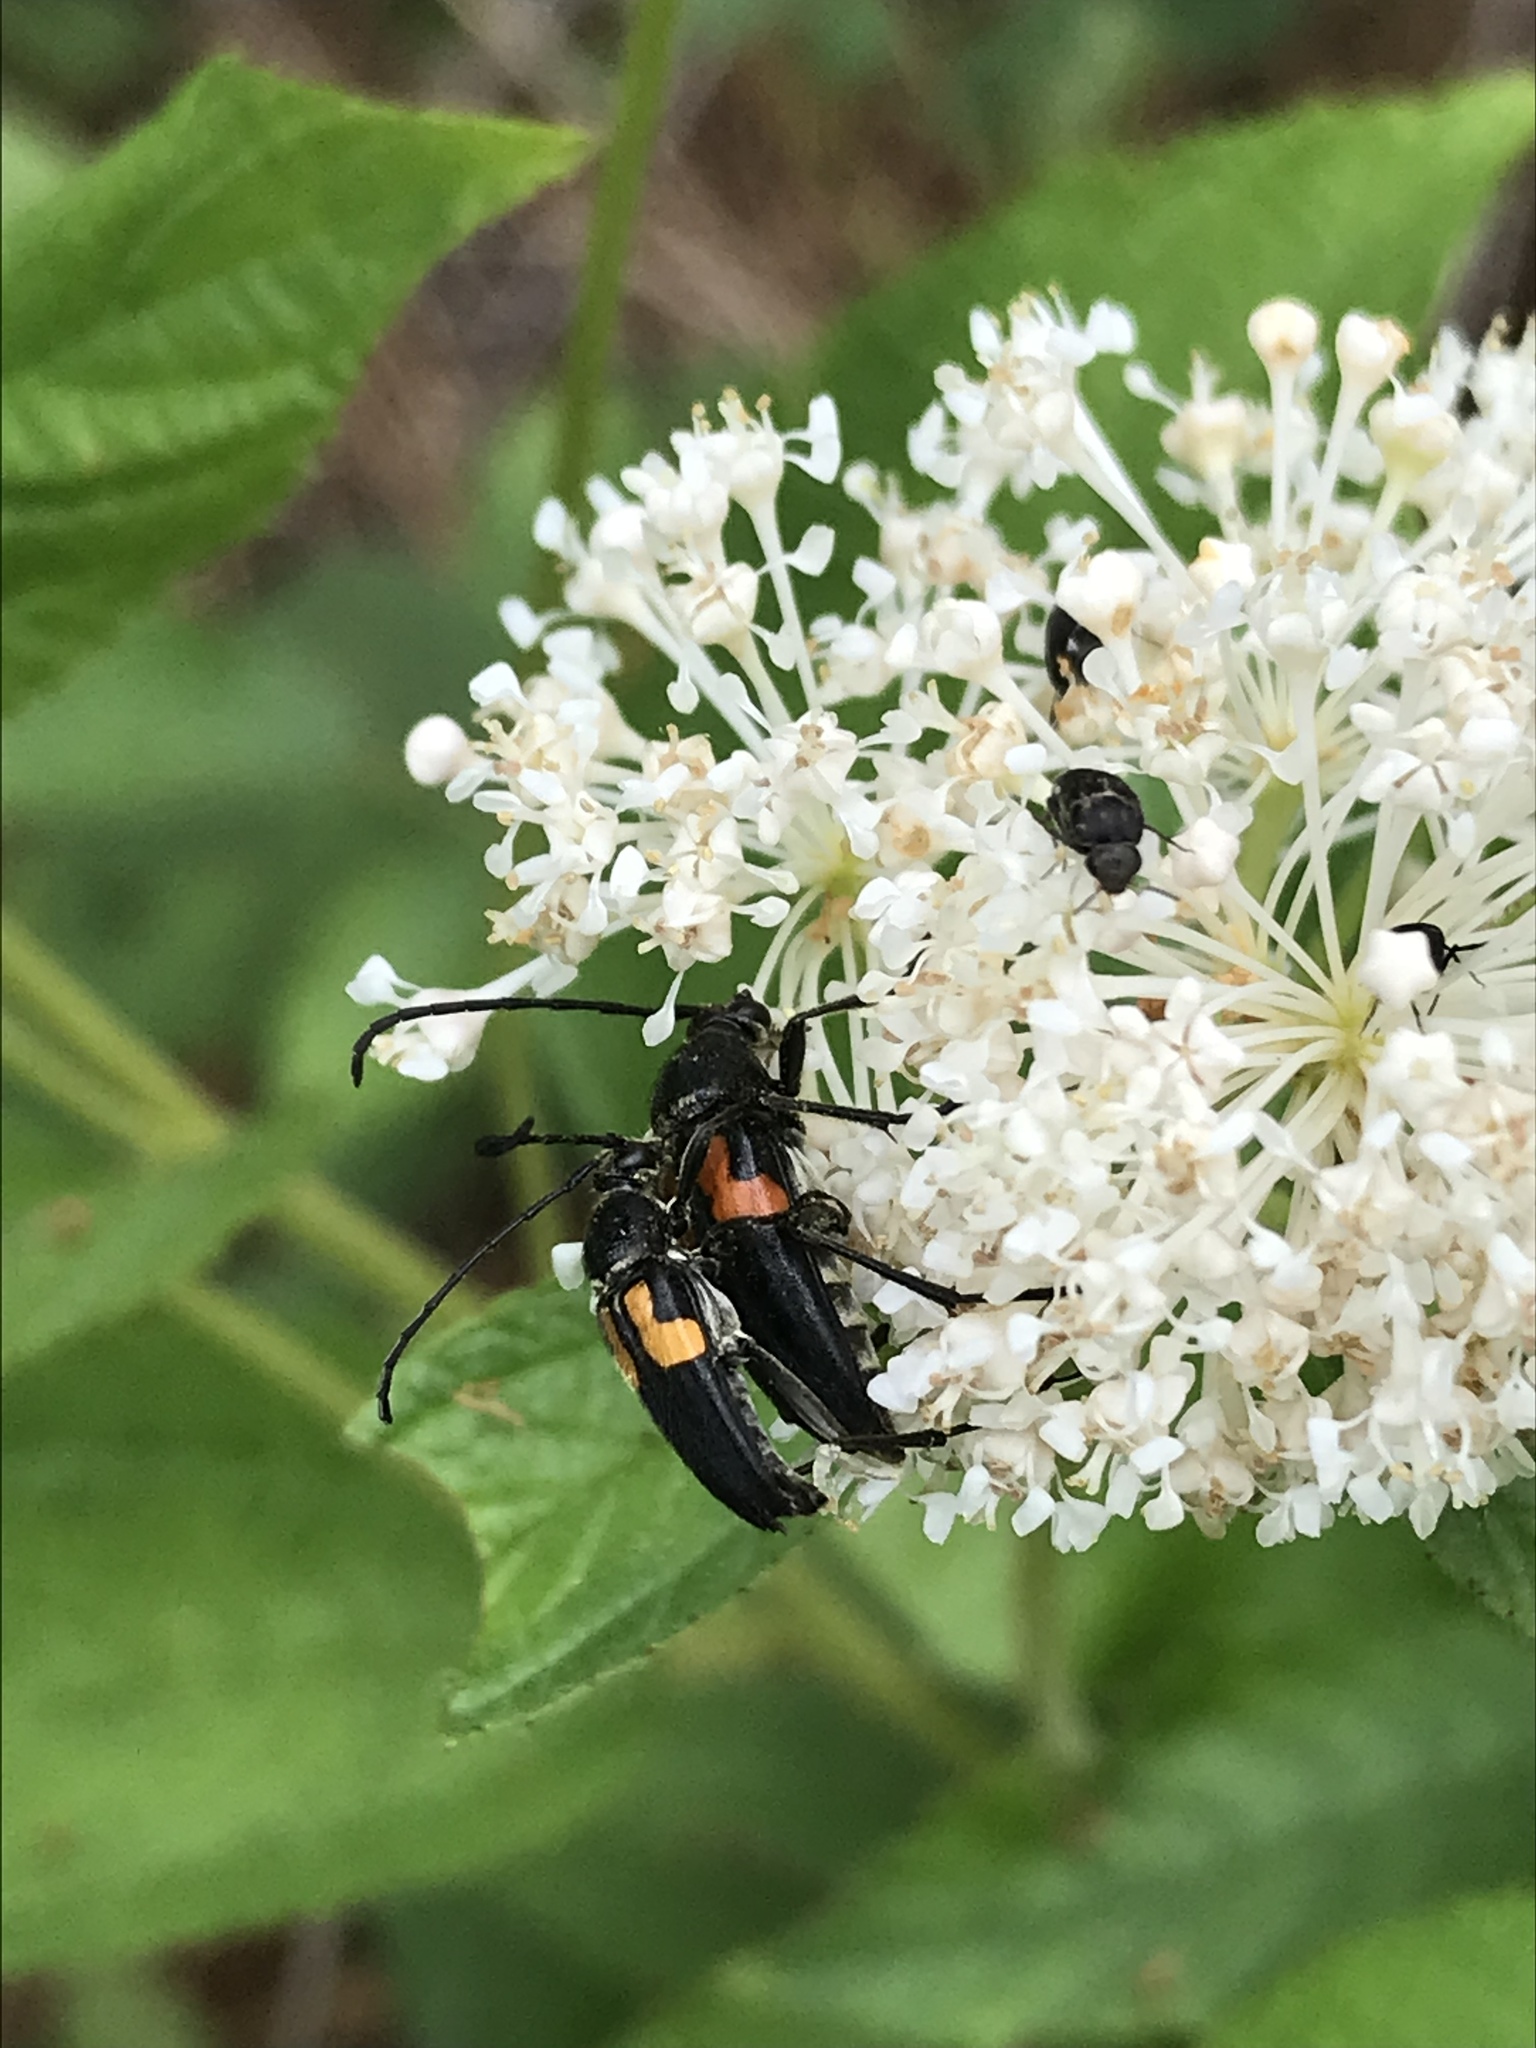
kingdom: Animalia
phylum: Arthropoda
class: Insecta
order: Coleoptera
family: Cerambycidae
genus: Typocerus
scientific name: Typocerus lunulatus
